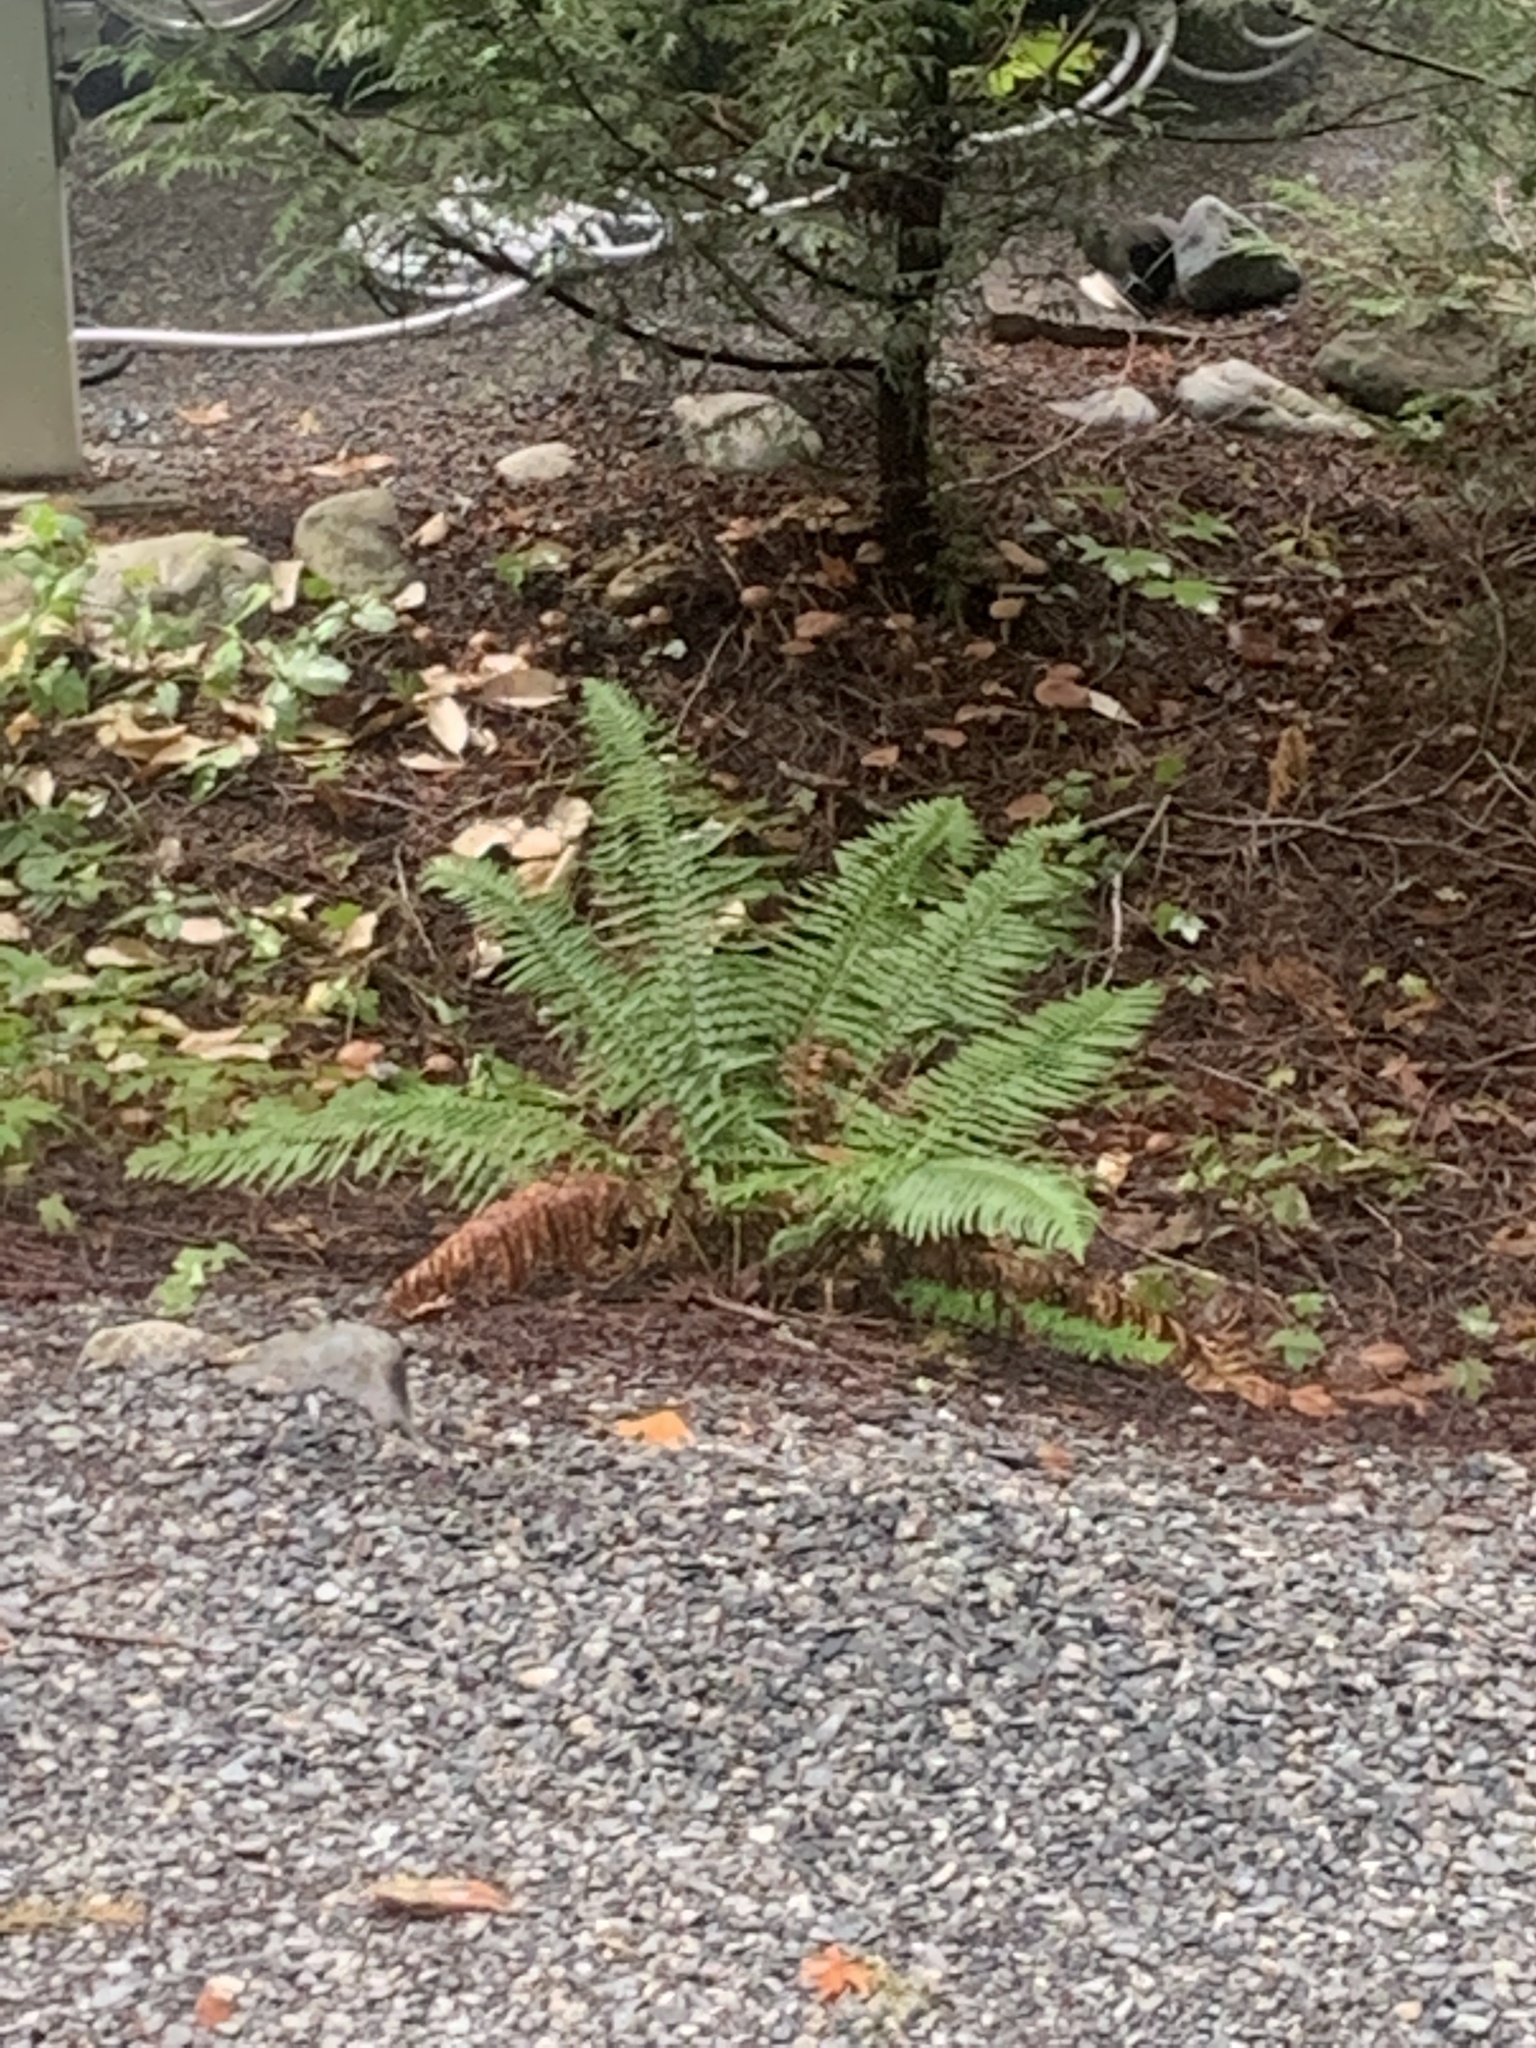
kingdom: Plantae
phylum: Tracheophyta
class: Polypodiopsida
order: Polypodiales
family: Dryopteridaceae
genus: Polystichum
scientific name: Polystichum munitum
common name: Western sword-fern
